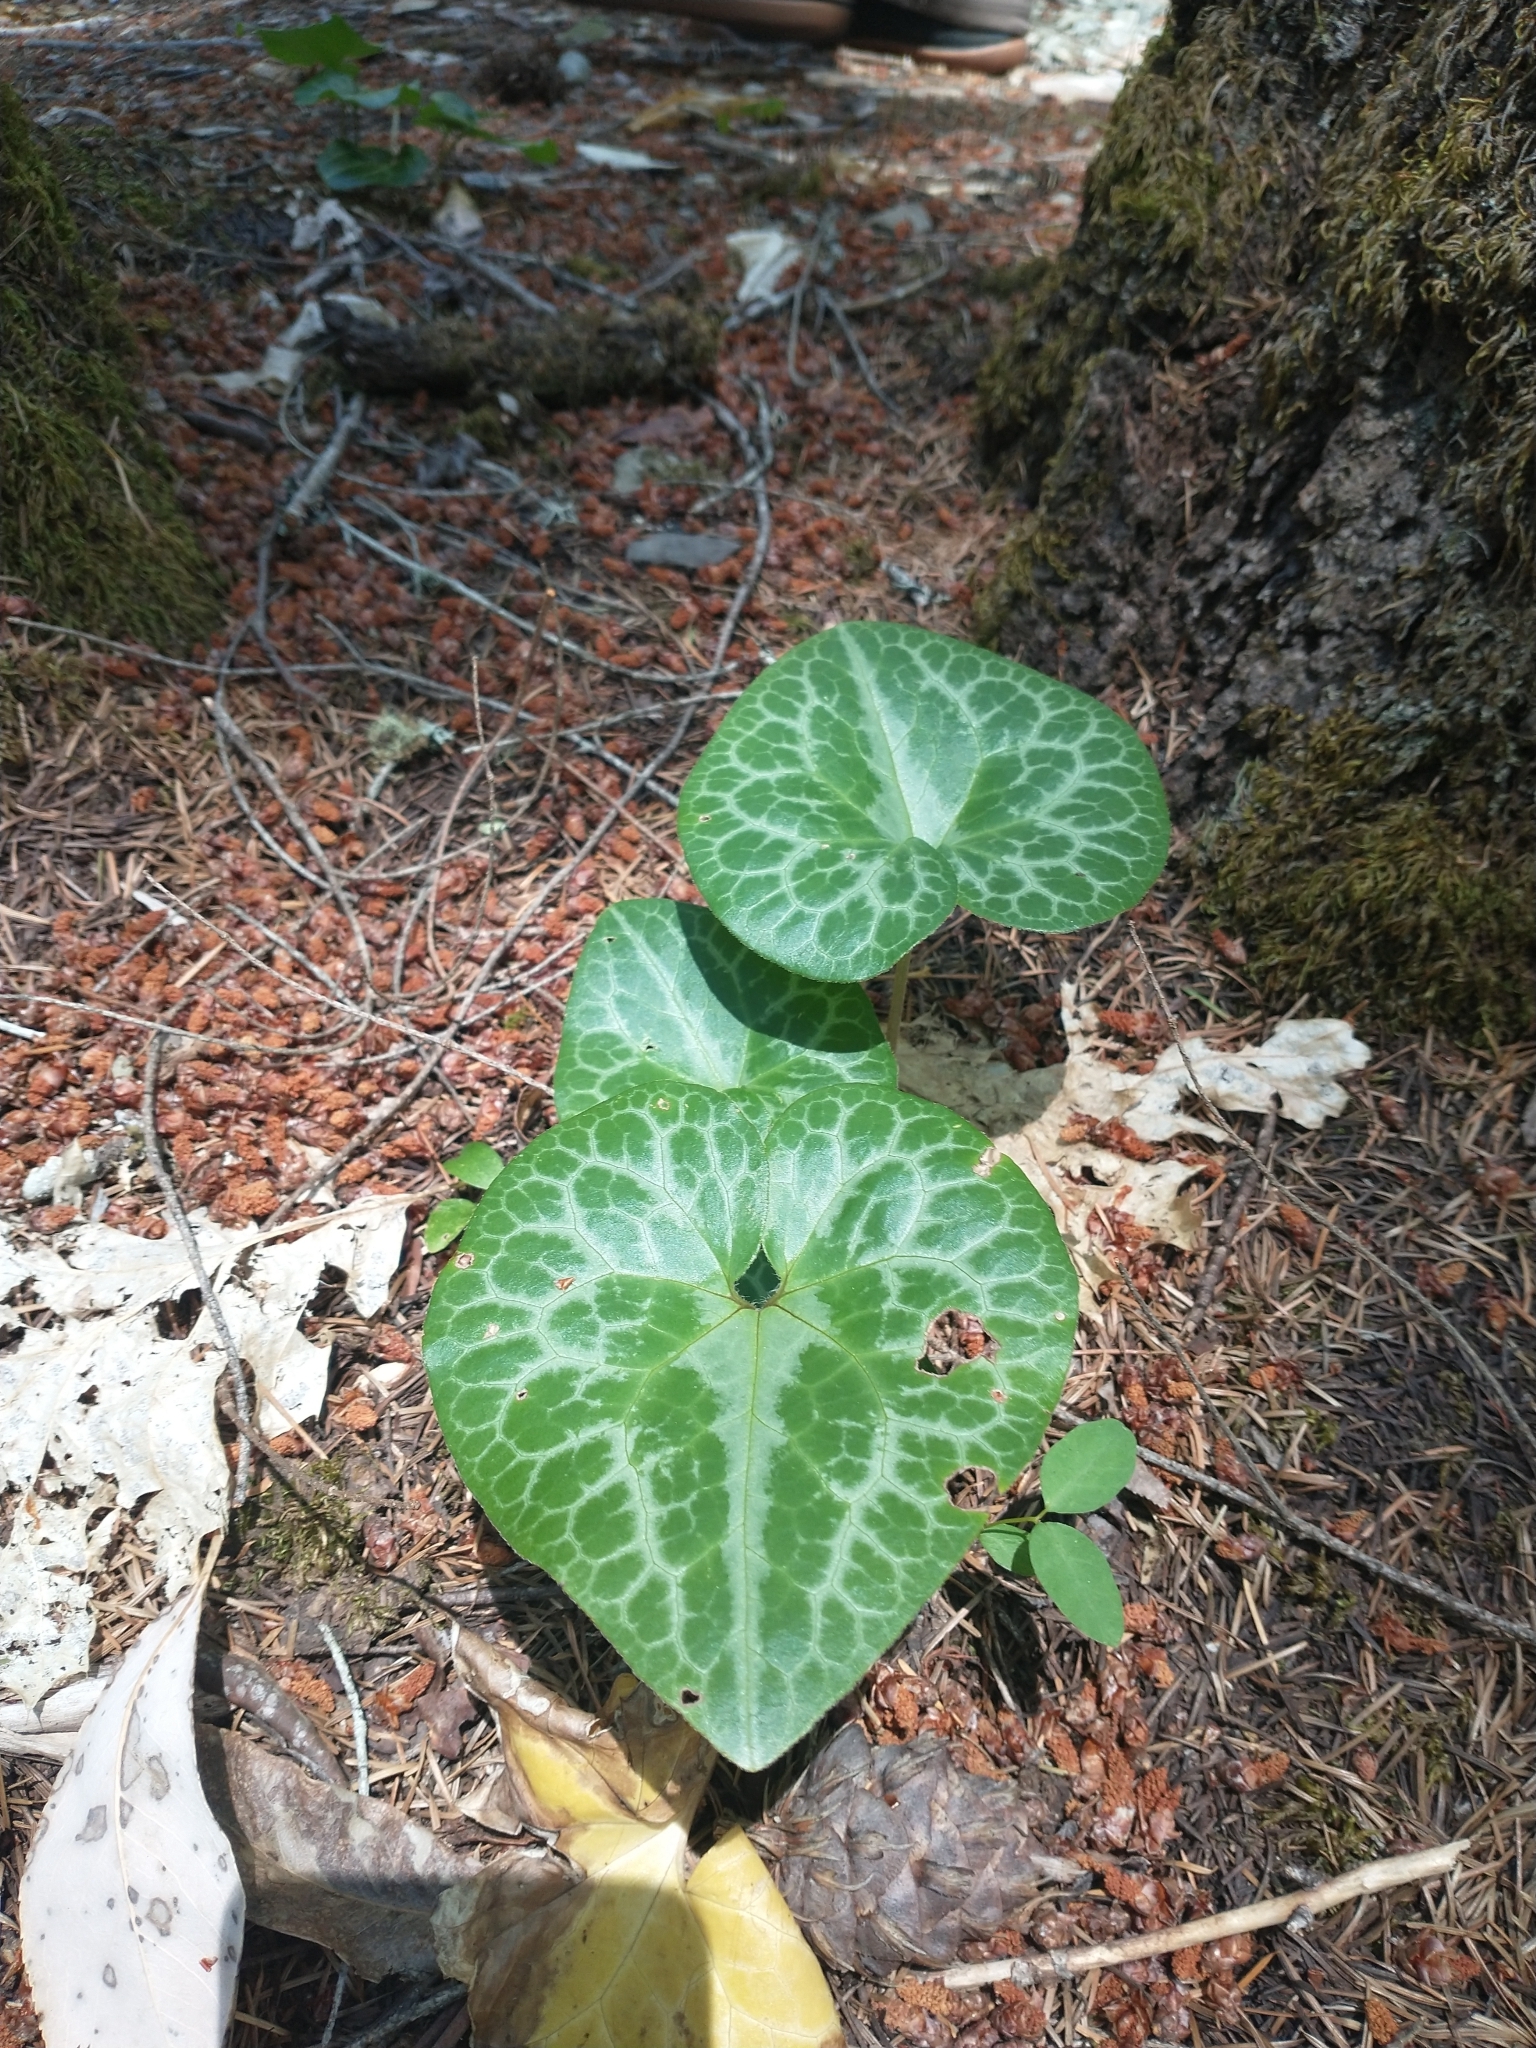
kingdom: Plantae
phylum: Tracheophyta
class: Magnoliopsida
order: Piperales
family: Aristolochiaceae
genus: Asarum
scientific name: Asarum hartwegii
